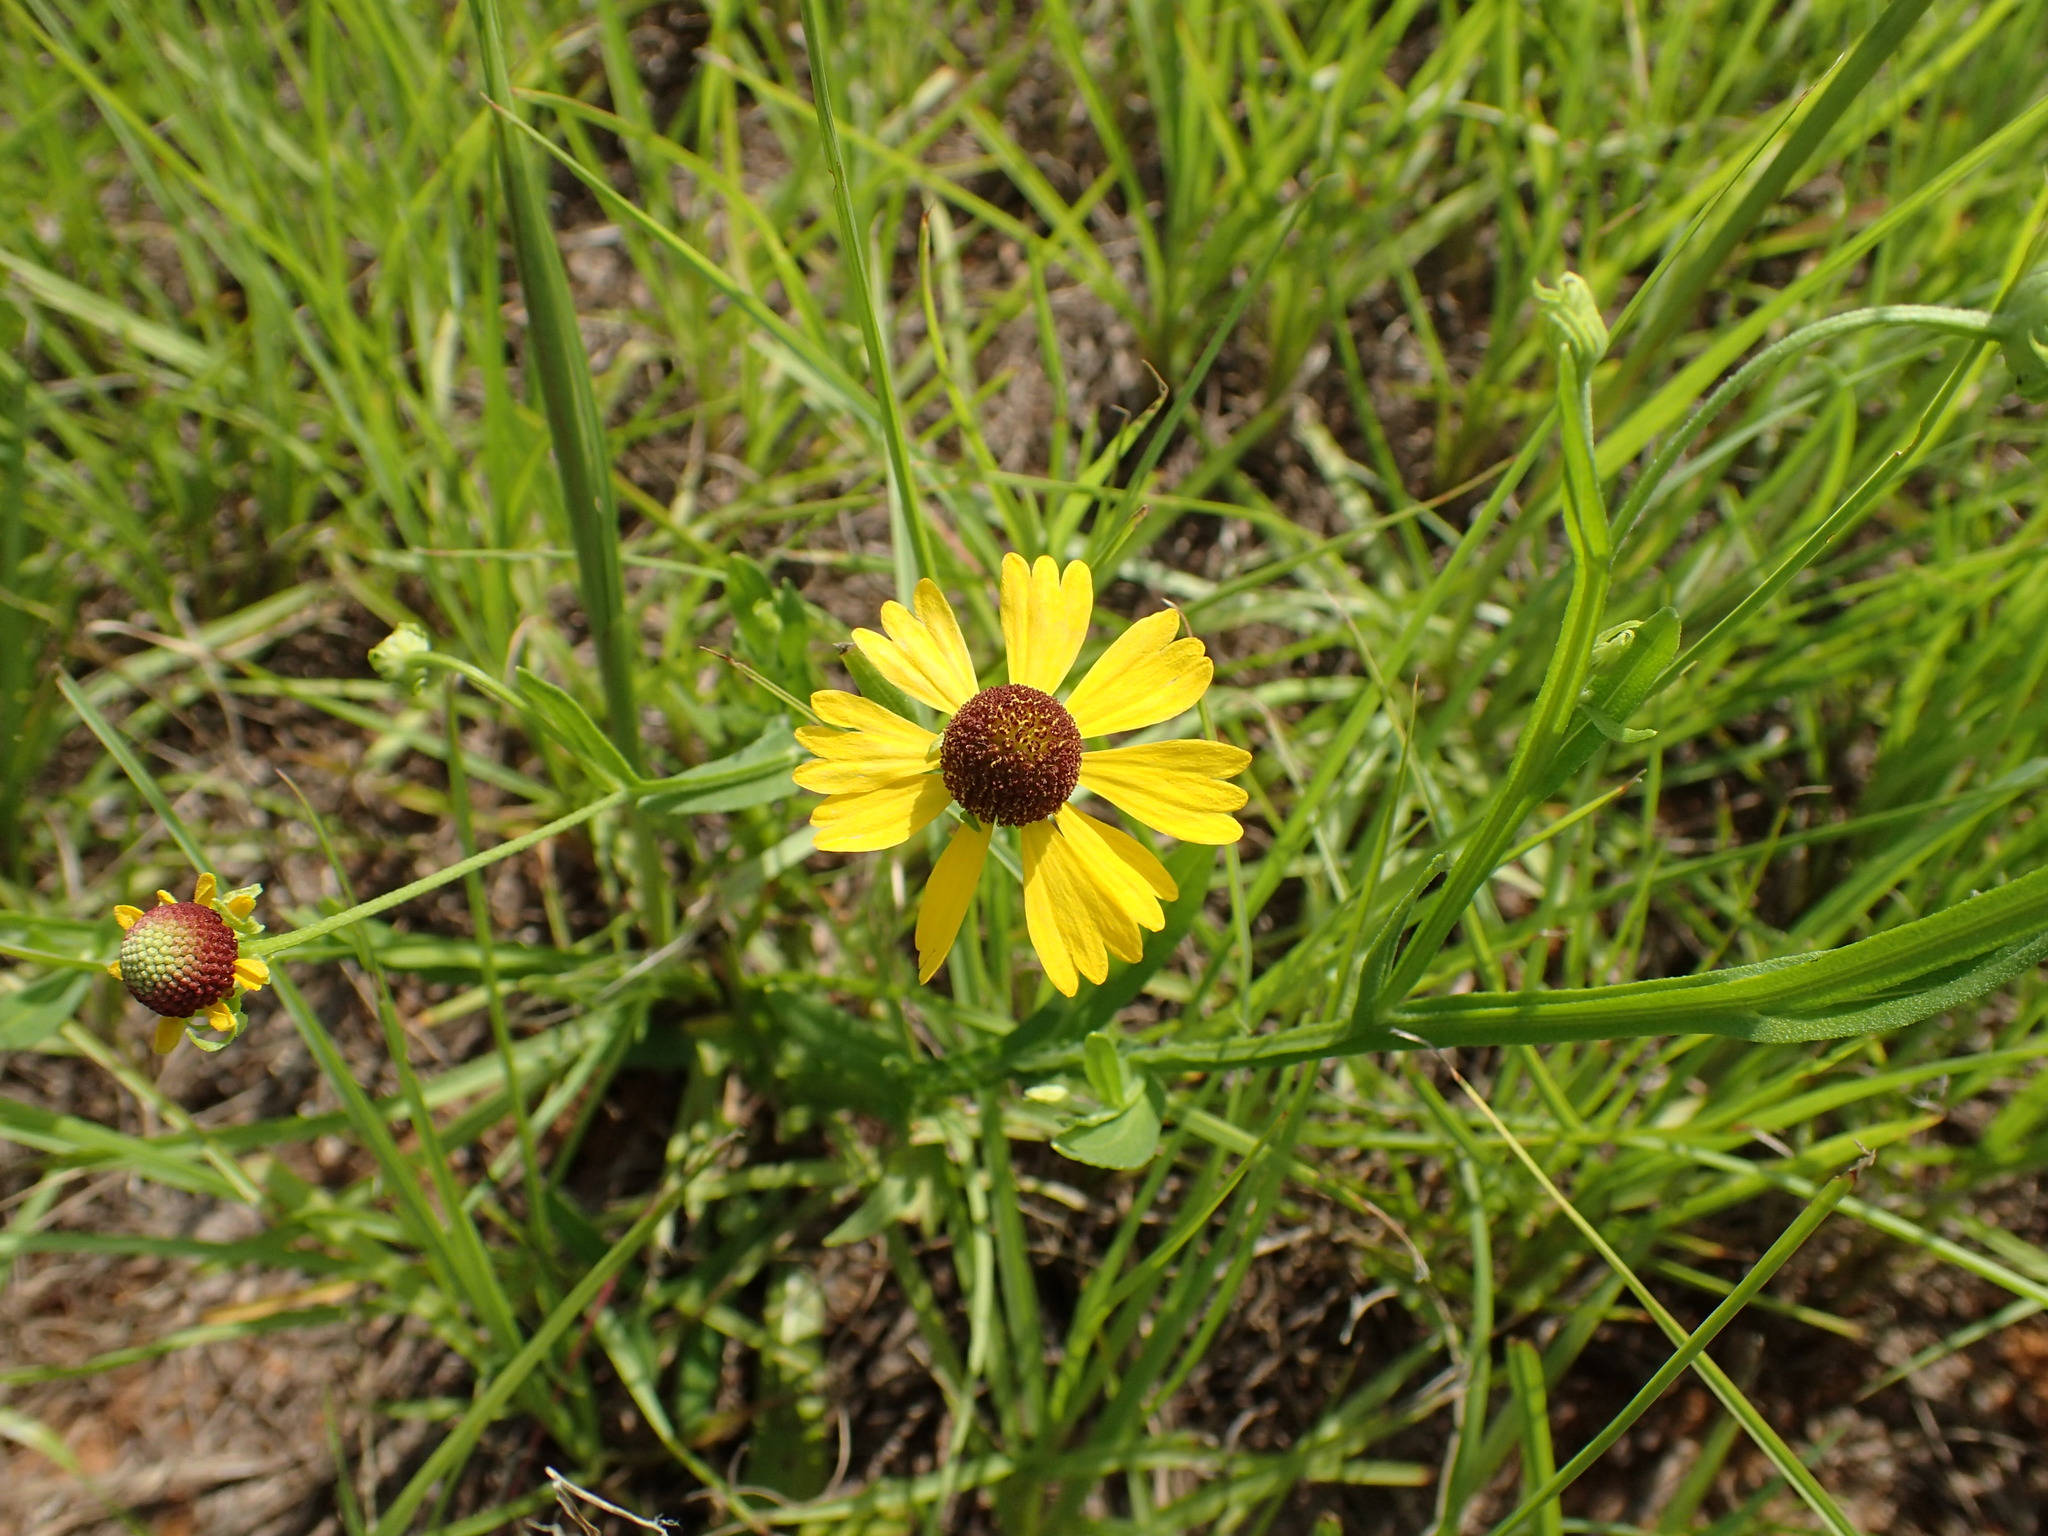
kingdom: Plantae
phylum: Tracheophyta
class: Magnoliopsida
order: Asterales
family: Asteraceae
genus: Helenium
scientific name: Helenium flexuosum
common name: Naked-flowered sneezeweed
